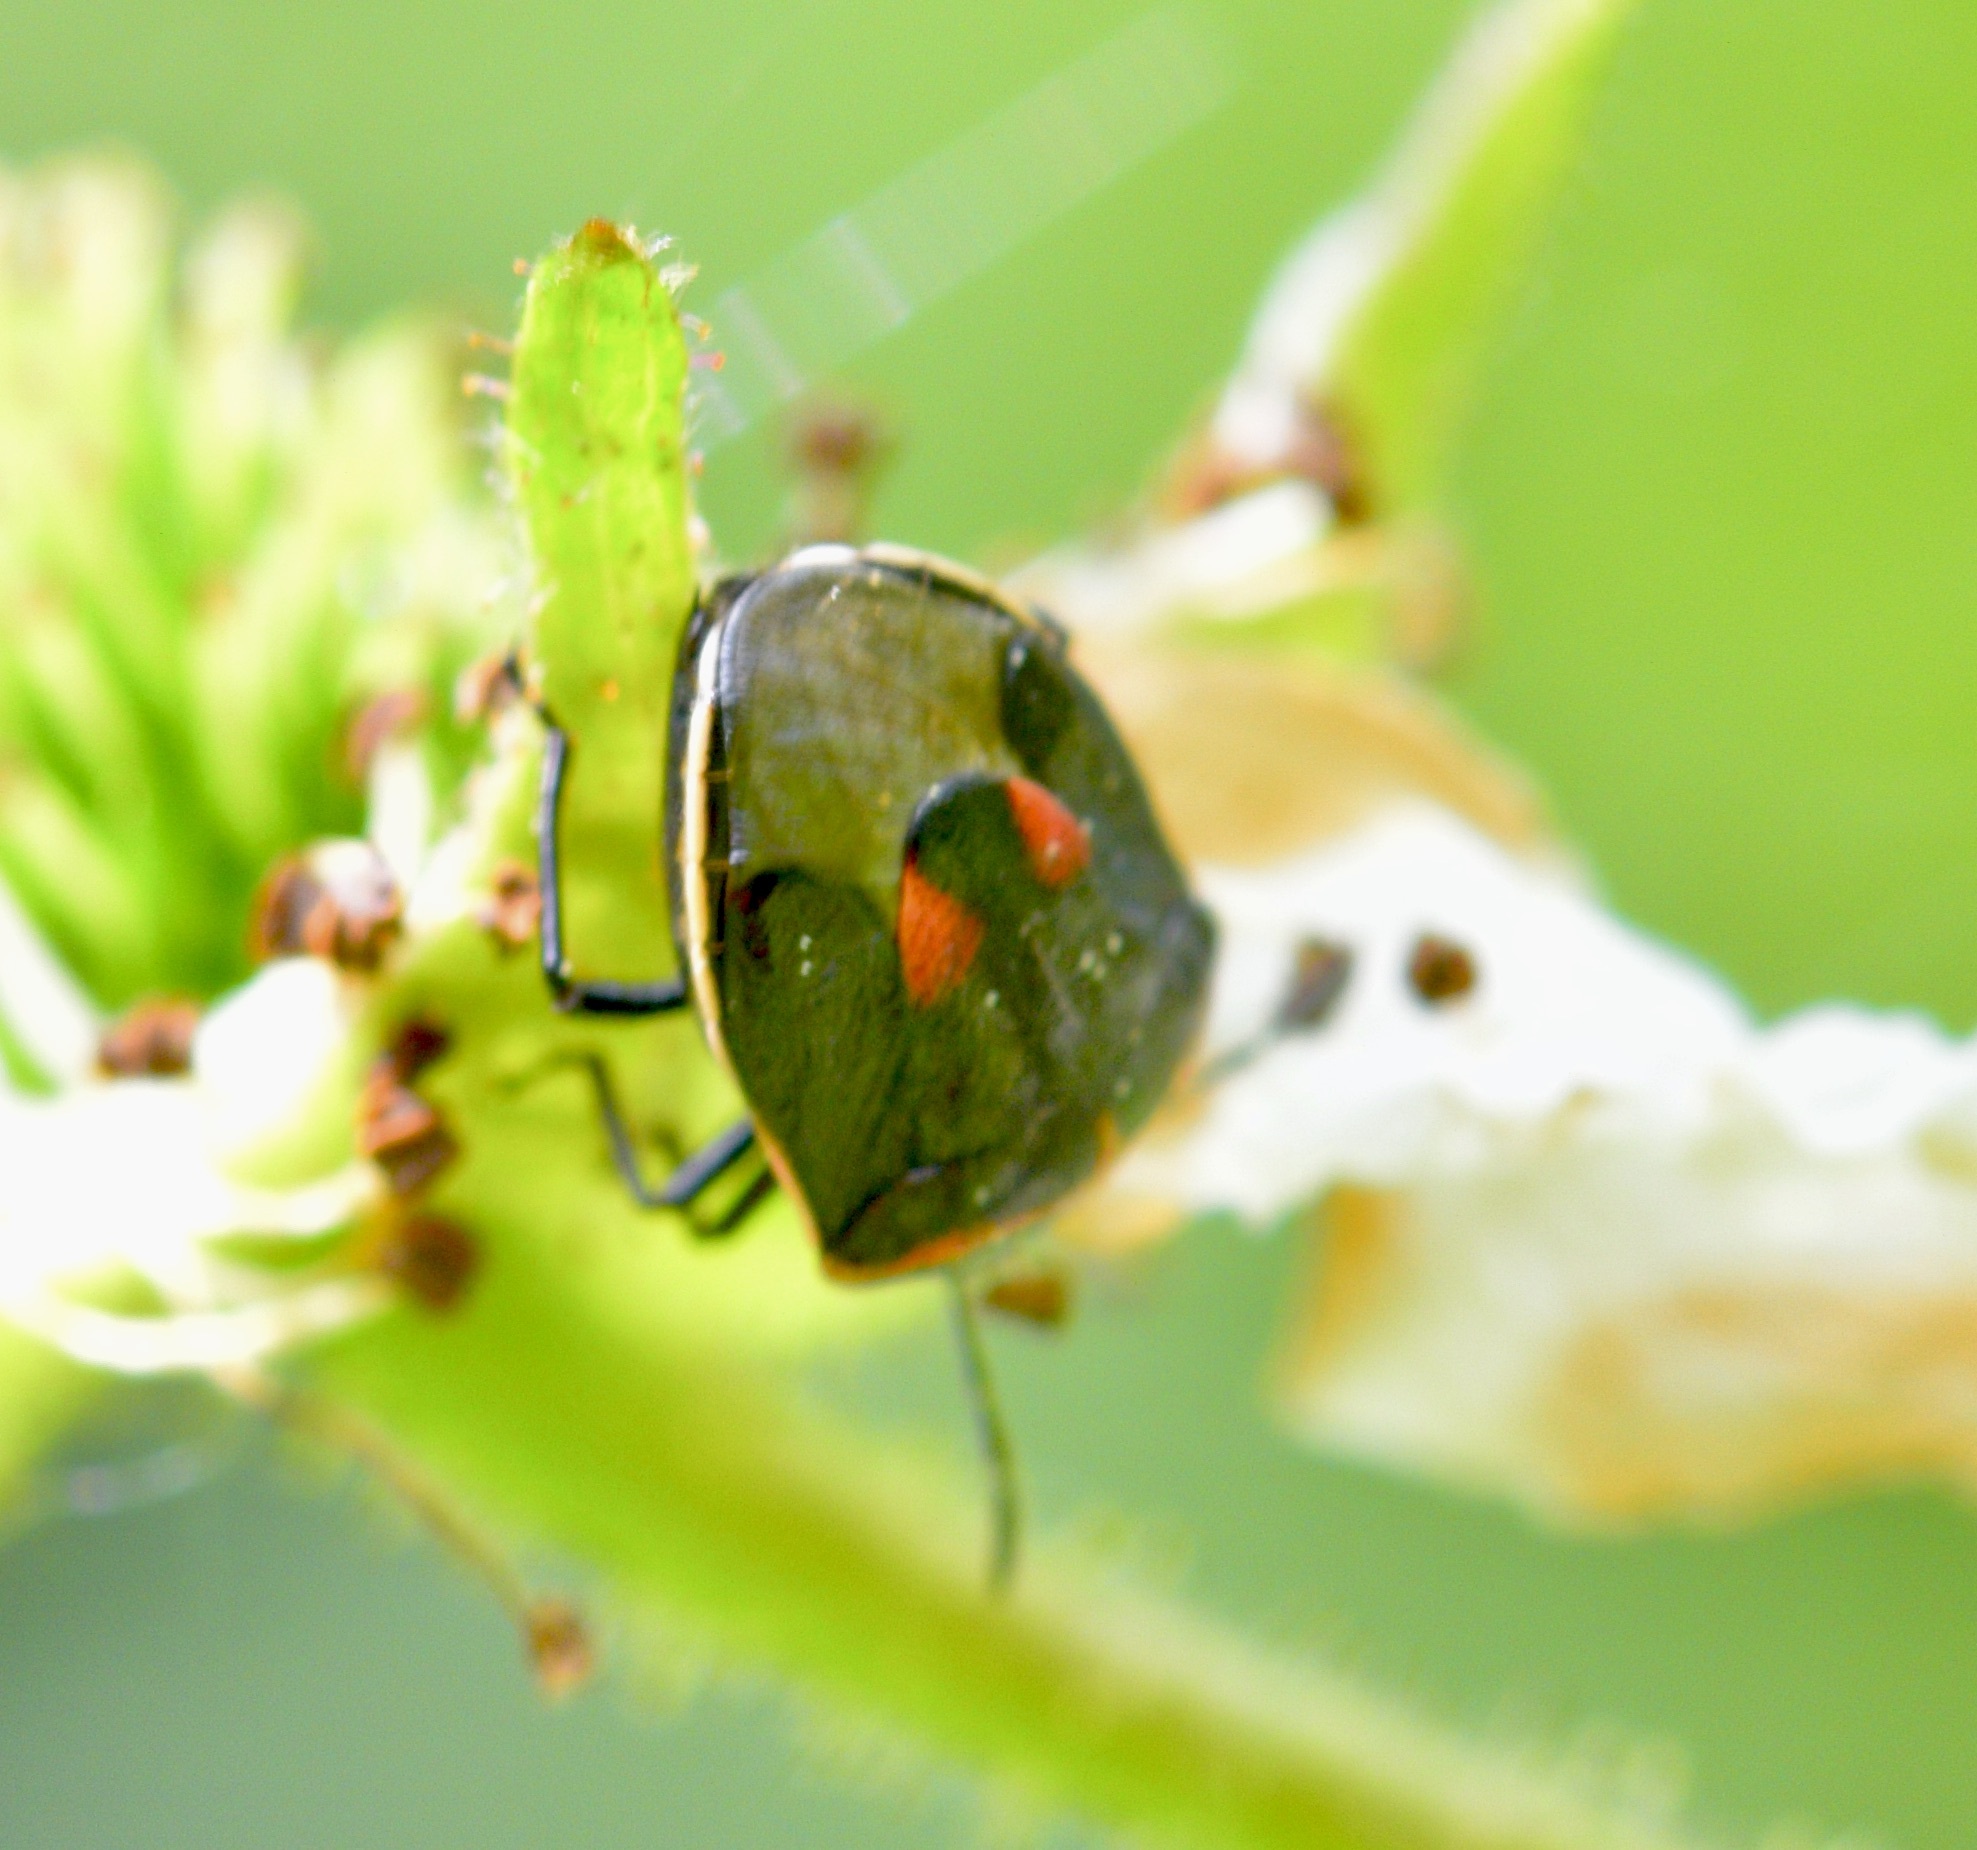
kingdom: Animalia
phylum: Arthropoda
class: Insecta
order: Hemiptera
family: Pentatomidae
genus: Cosmopepla
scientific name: Cosmopepla lintneriana
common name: Twice-stabbed stink bug
